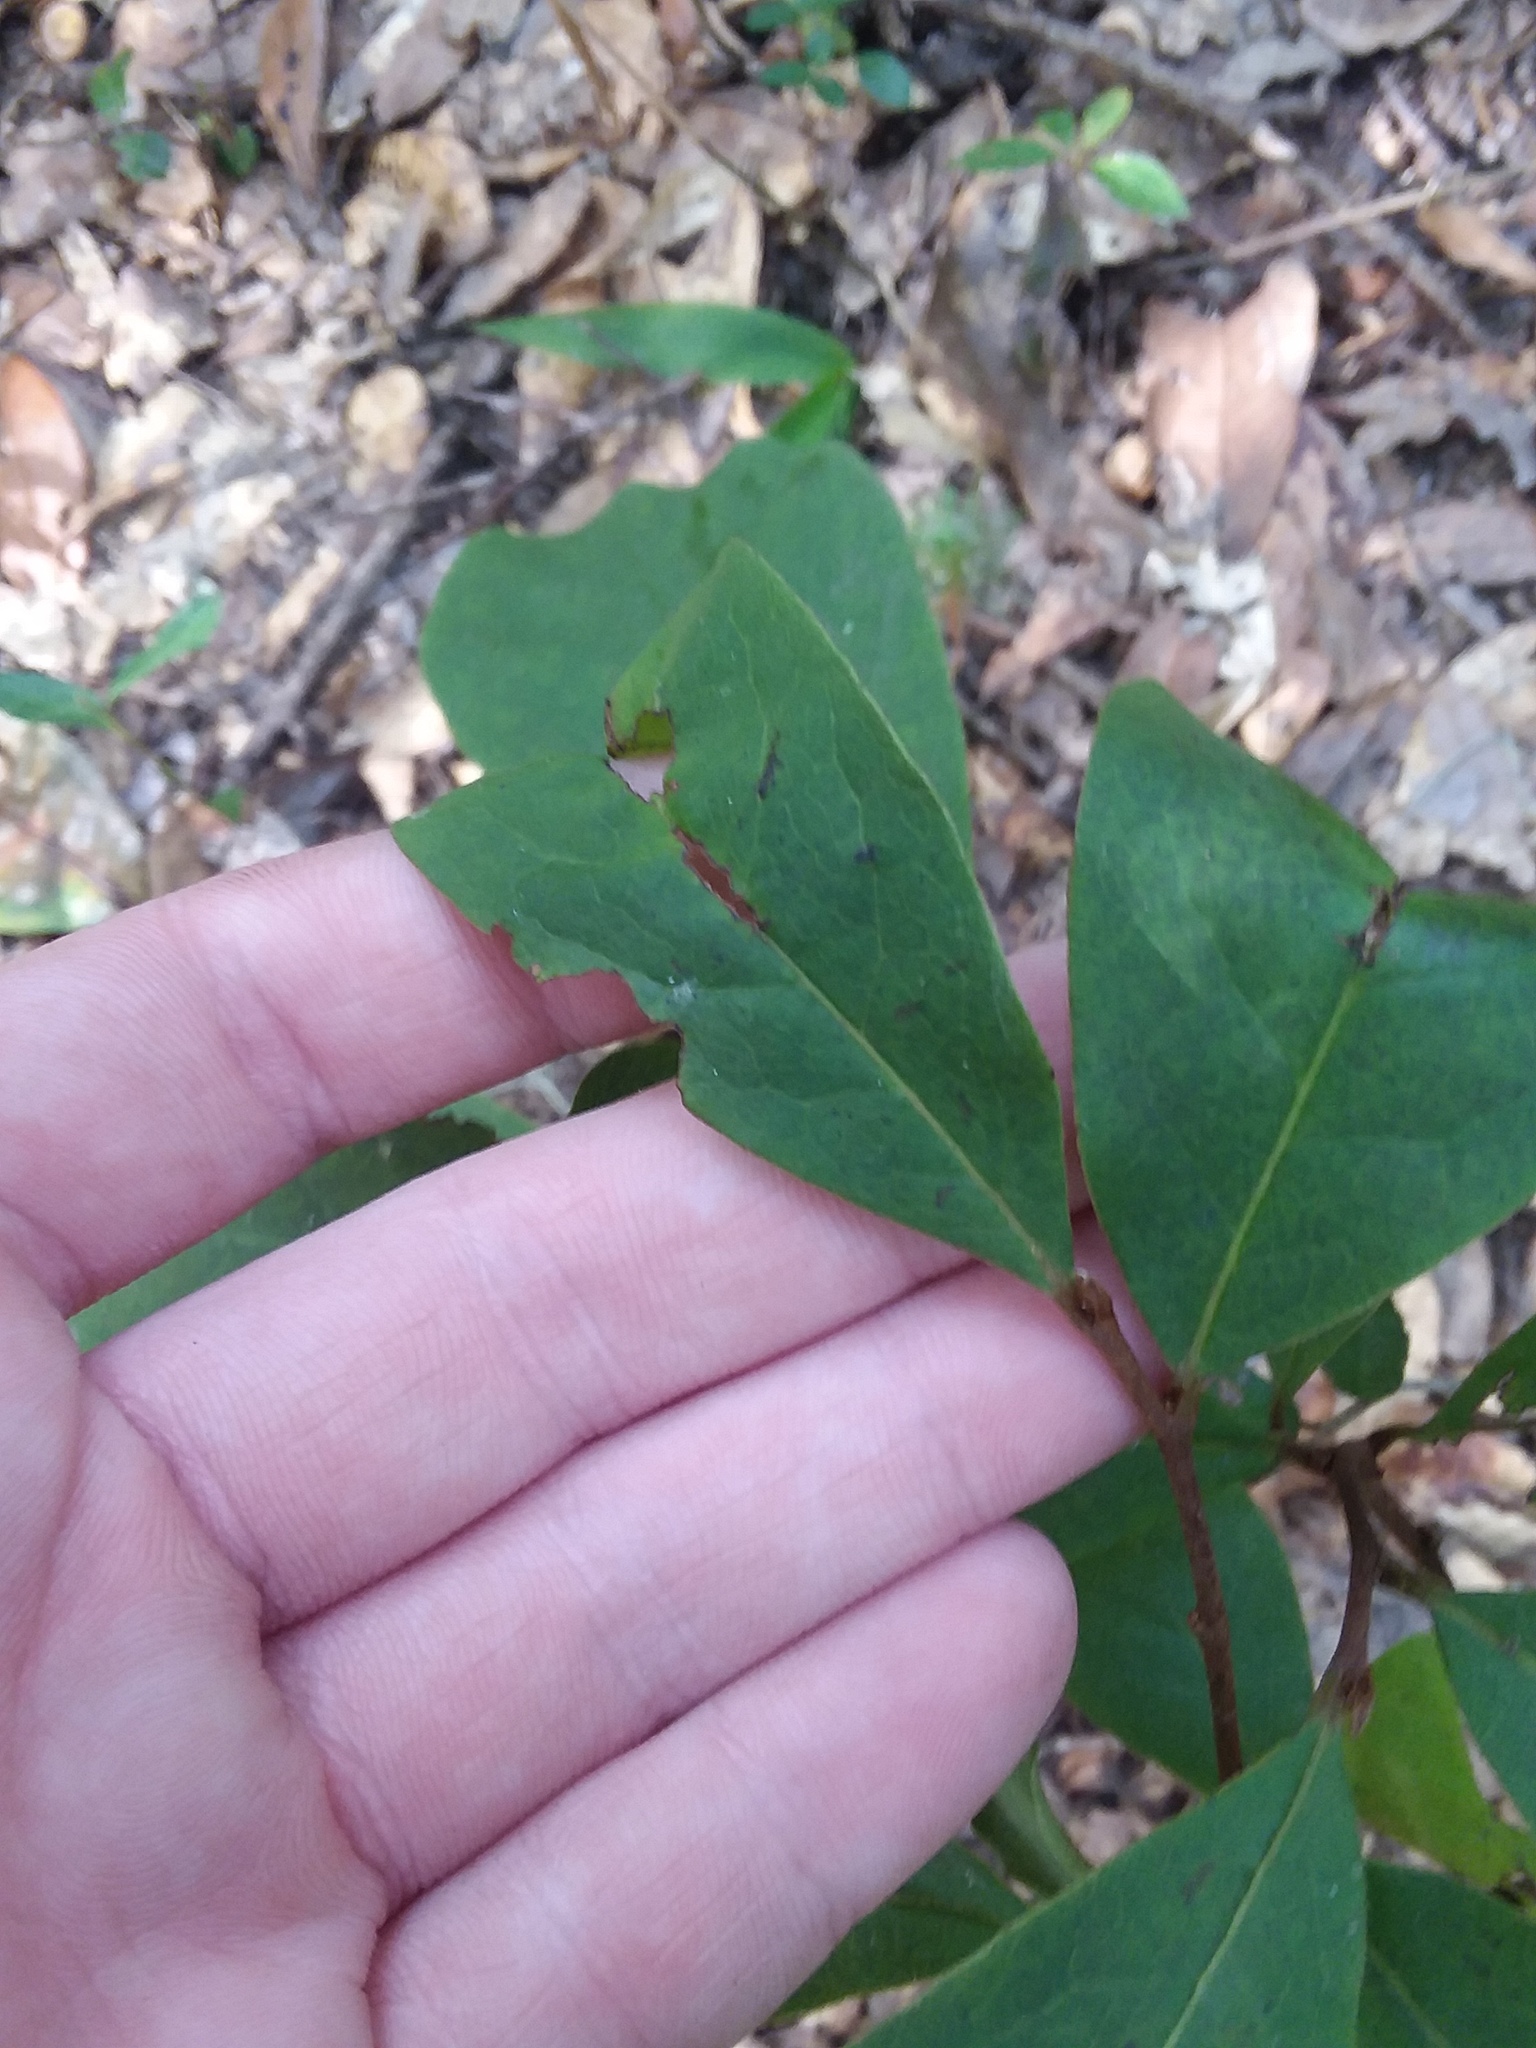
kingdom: Plantae
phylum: Tracheophyta
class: Magnoliopsida
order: Magnoliales
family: Annonaceae
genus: Asimina
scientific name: Asimina parviflora
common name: Dwarf pawpaw
